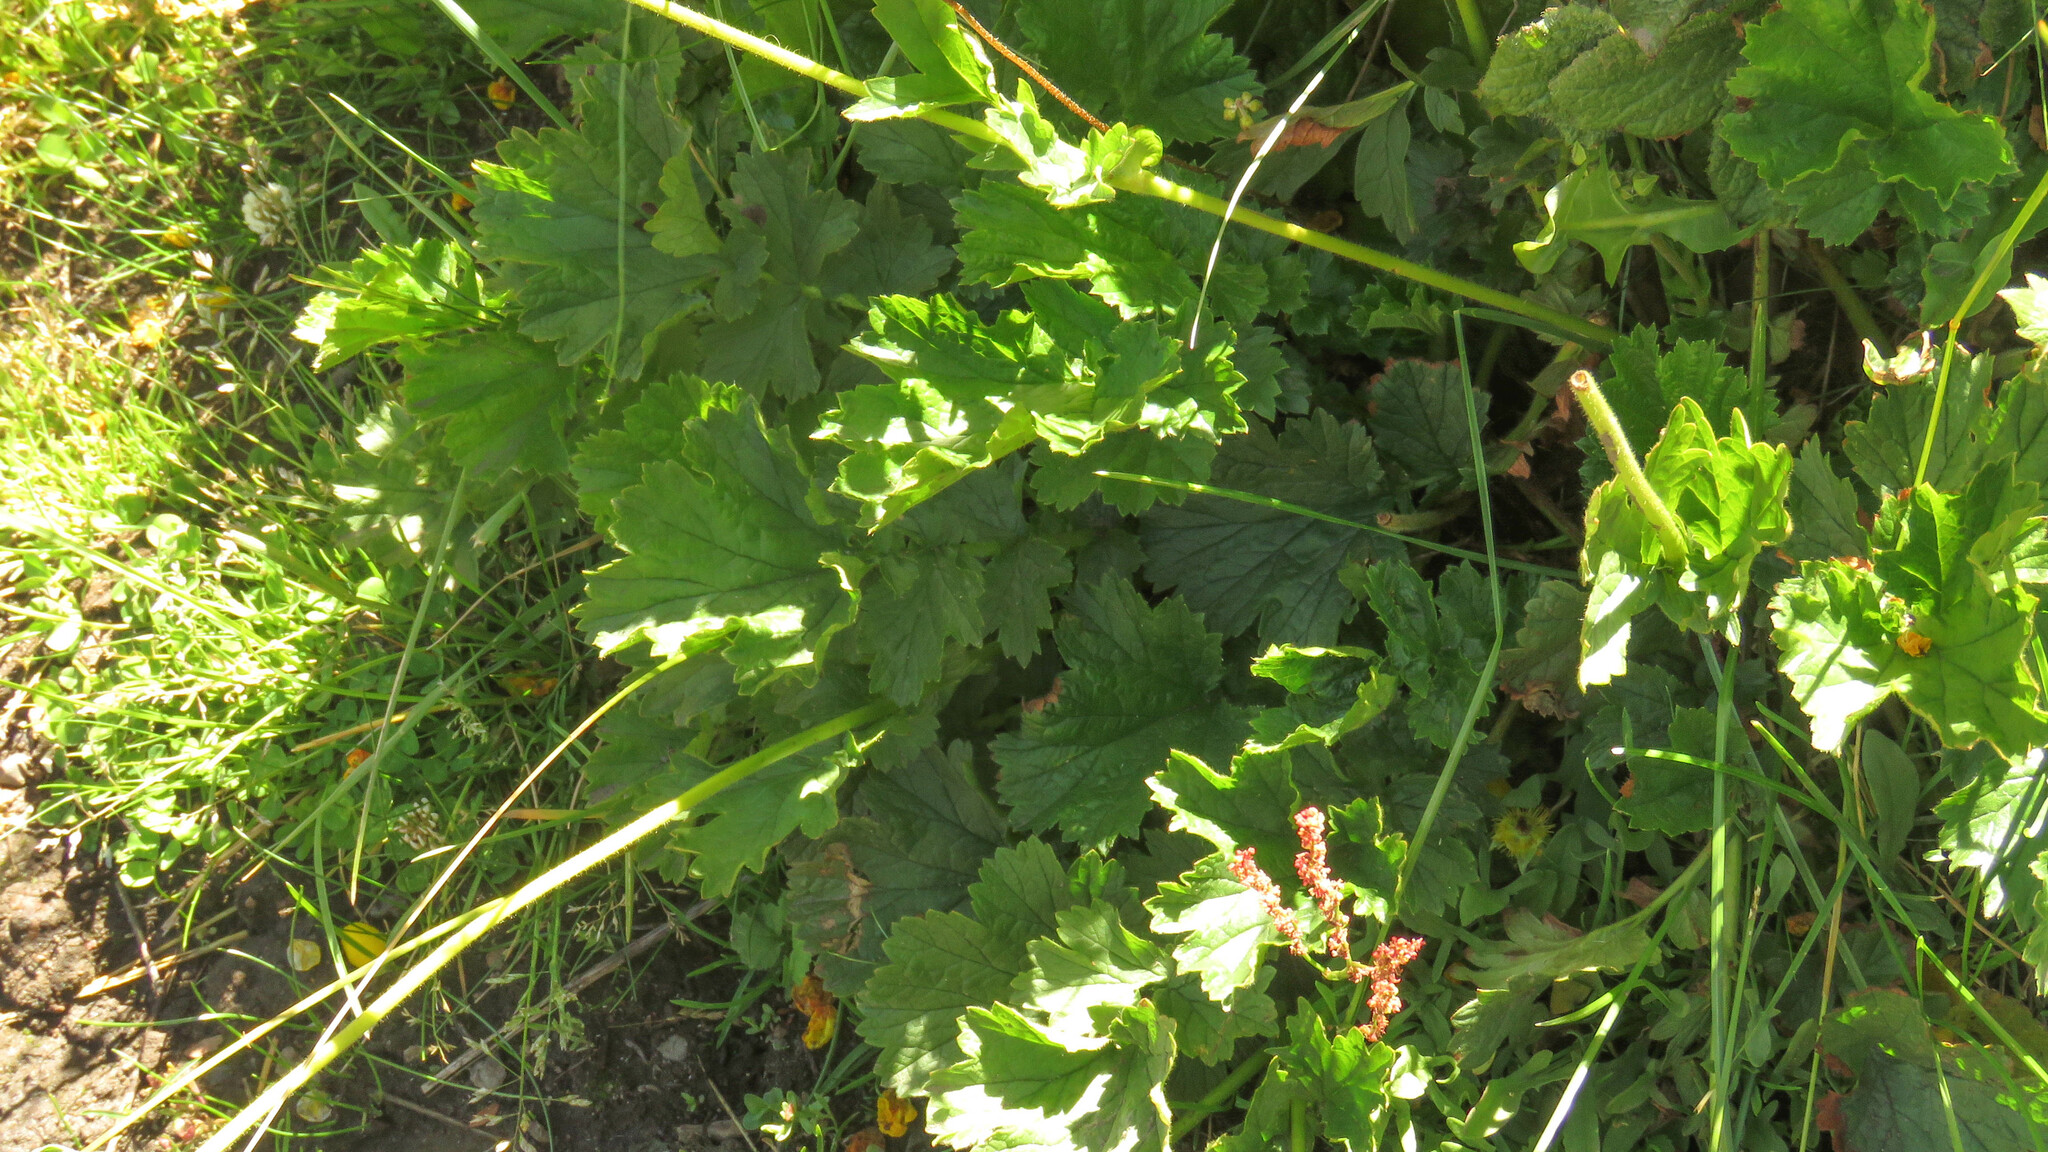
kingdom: Plantae
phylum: Tracheophyta
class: Magnoliopsida
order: Rosales
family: Rosaceae
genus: Geum
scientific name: Geum magellanicum
